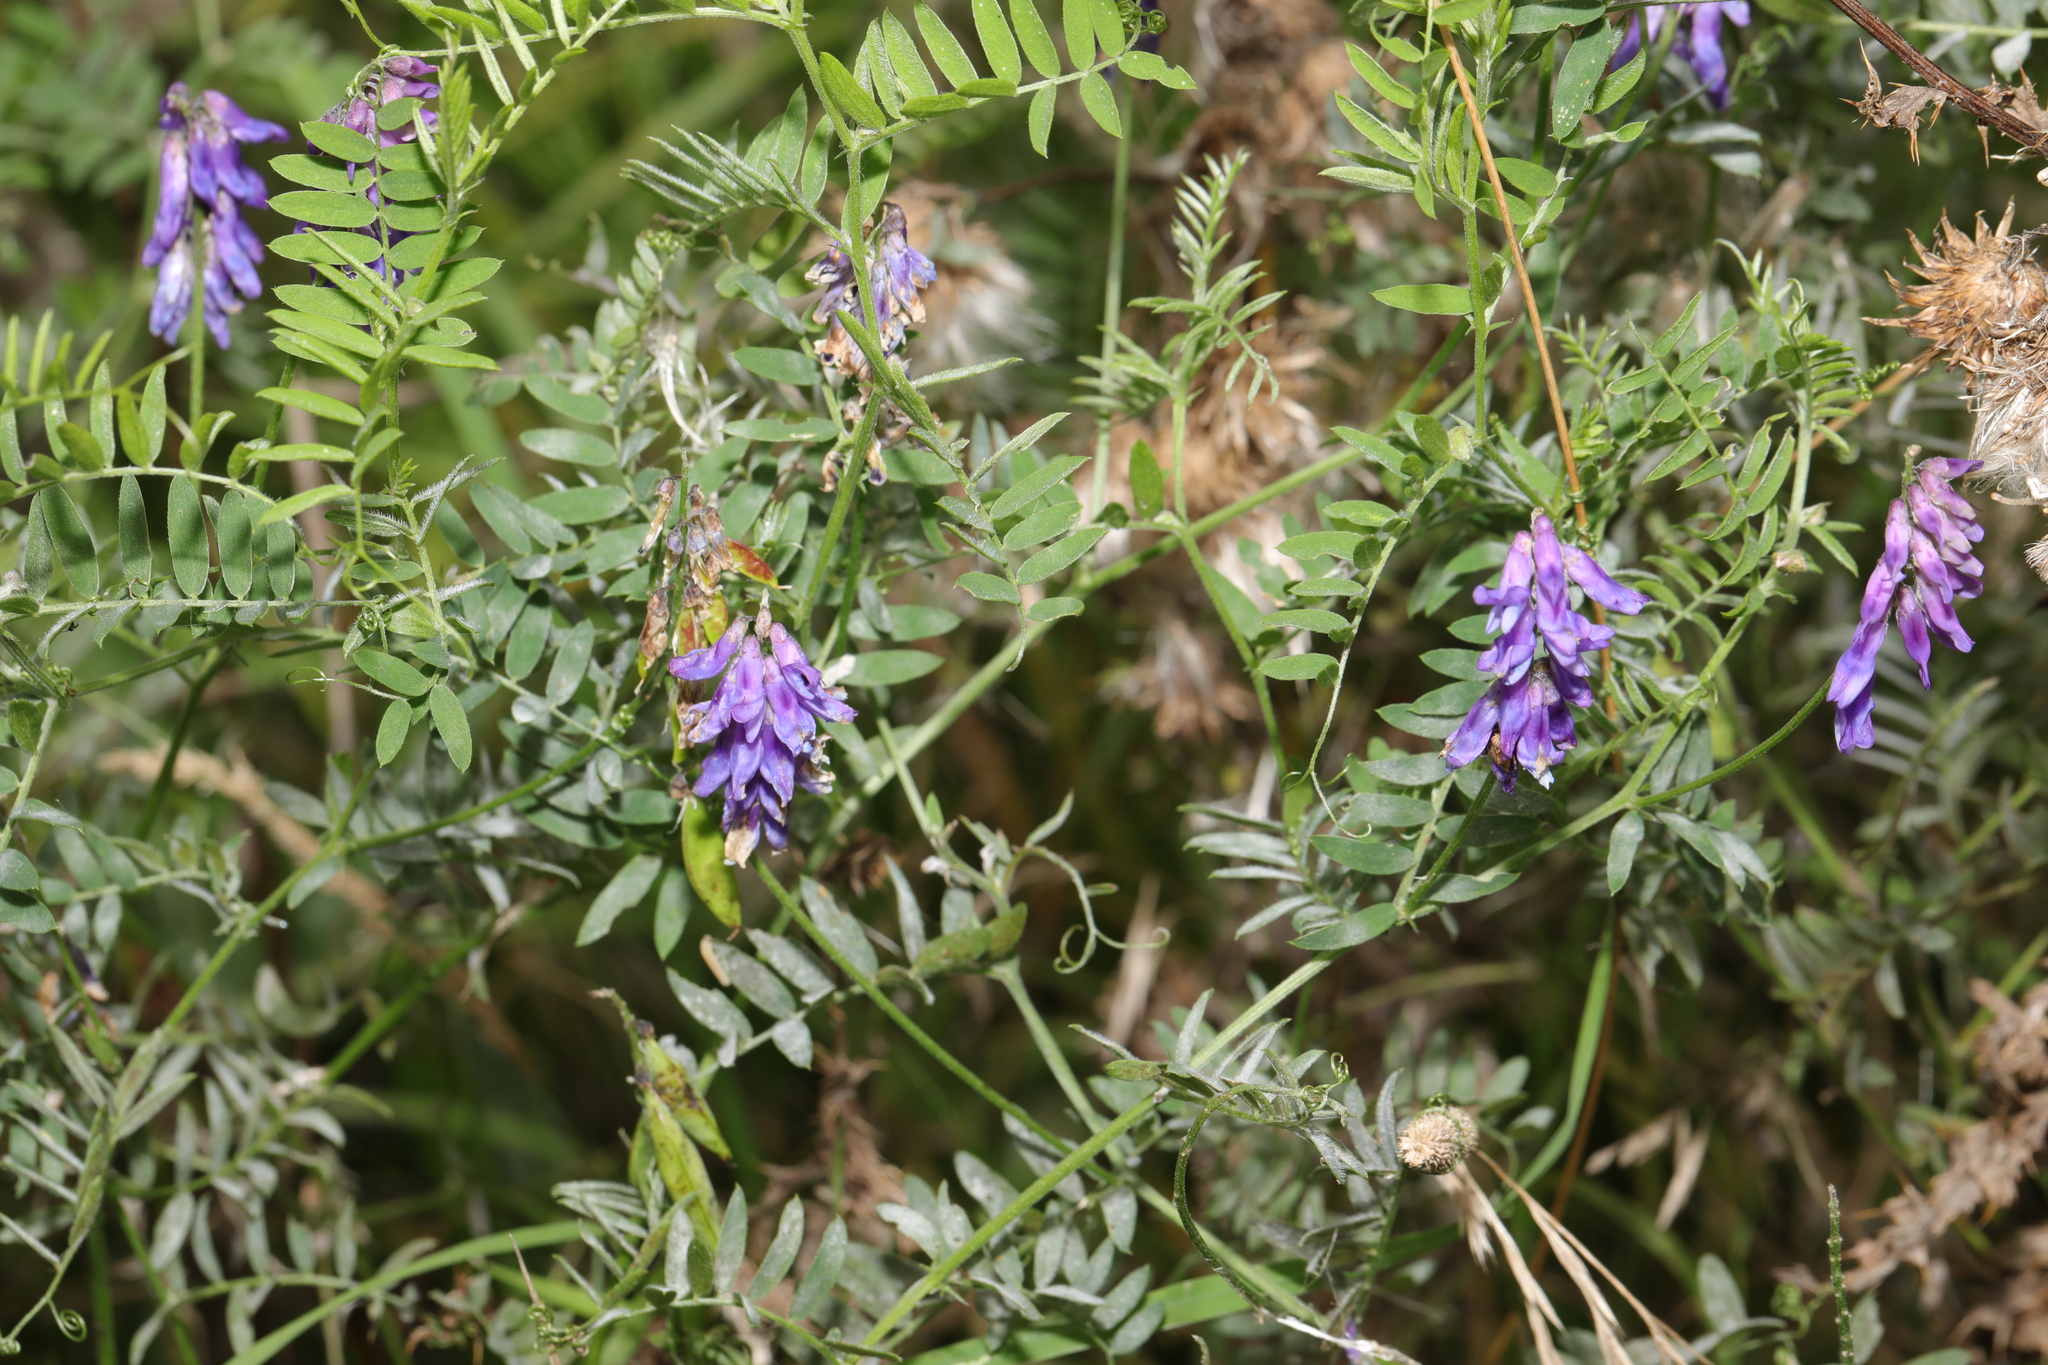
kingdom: Plantae
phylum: Tracheophyta
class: Magnoliopsida
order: Fabales
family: Fabaceae
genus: Vicia
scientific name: Vicia cracca
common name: Bird vetch
